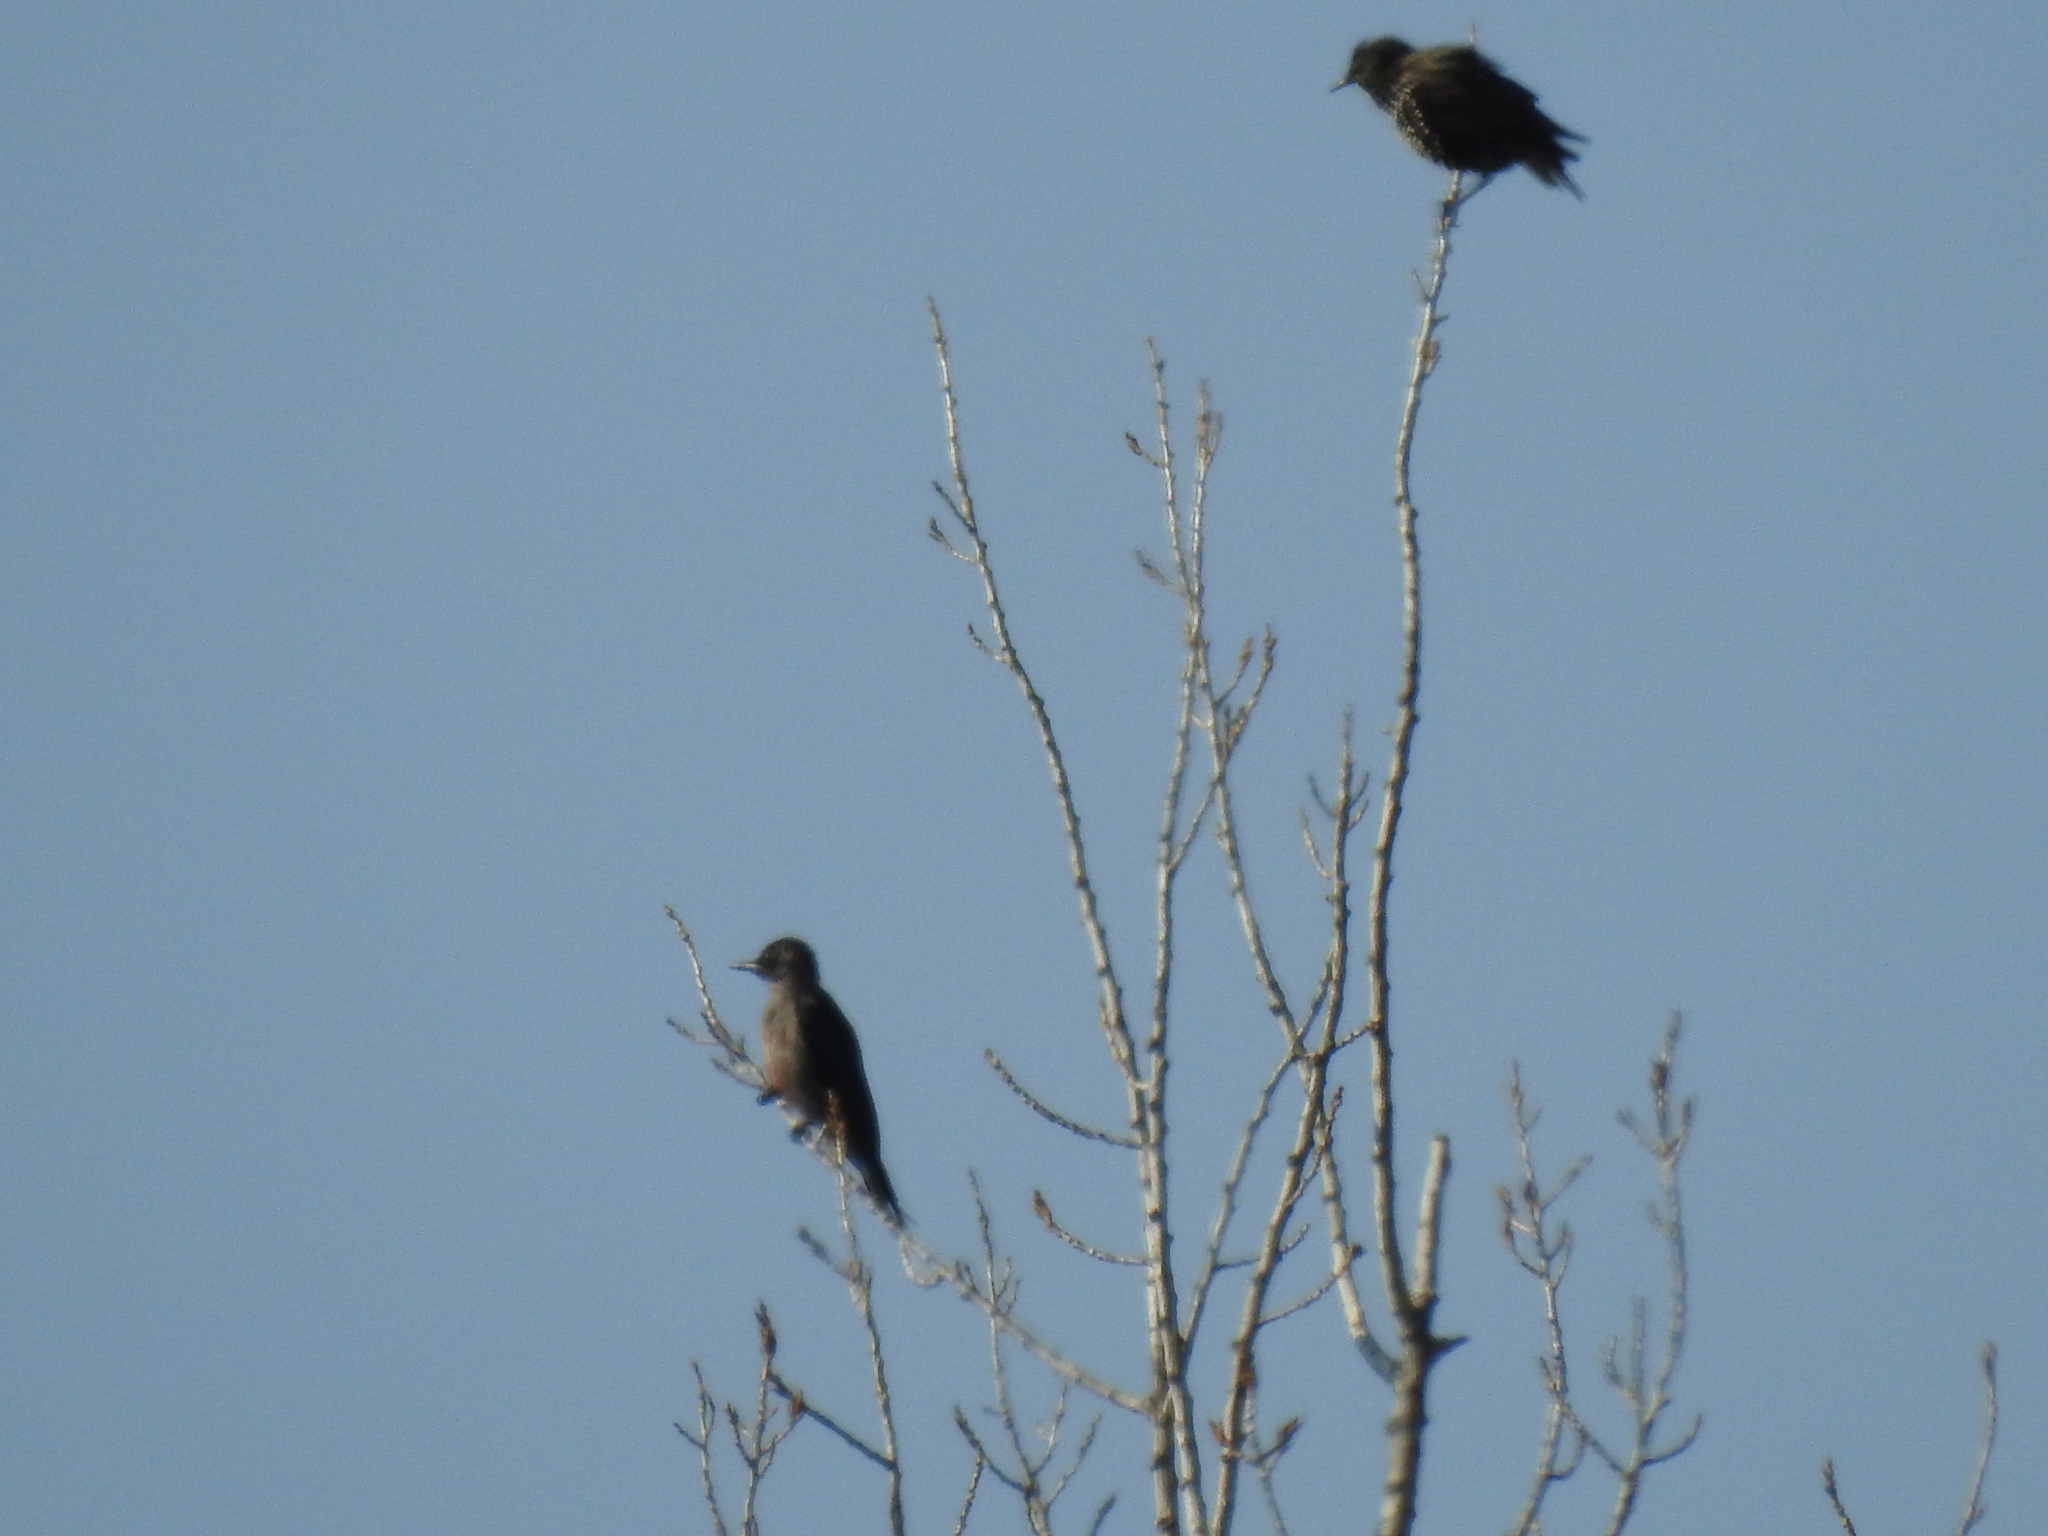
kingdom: Animalia
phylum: Chordata
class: Aves
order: Passeriformes
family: Sturnidae
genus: Sturnus
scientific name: Sturnus vulgaris
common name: Common starling
